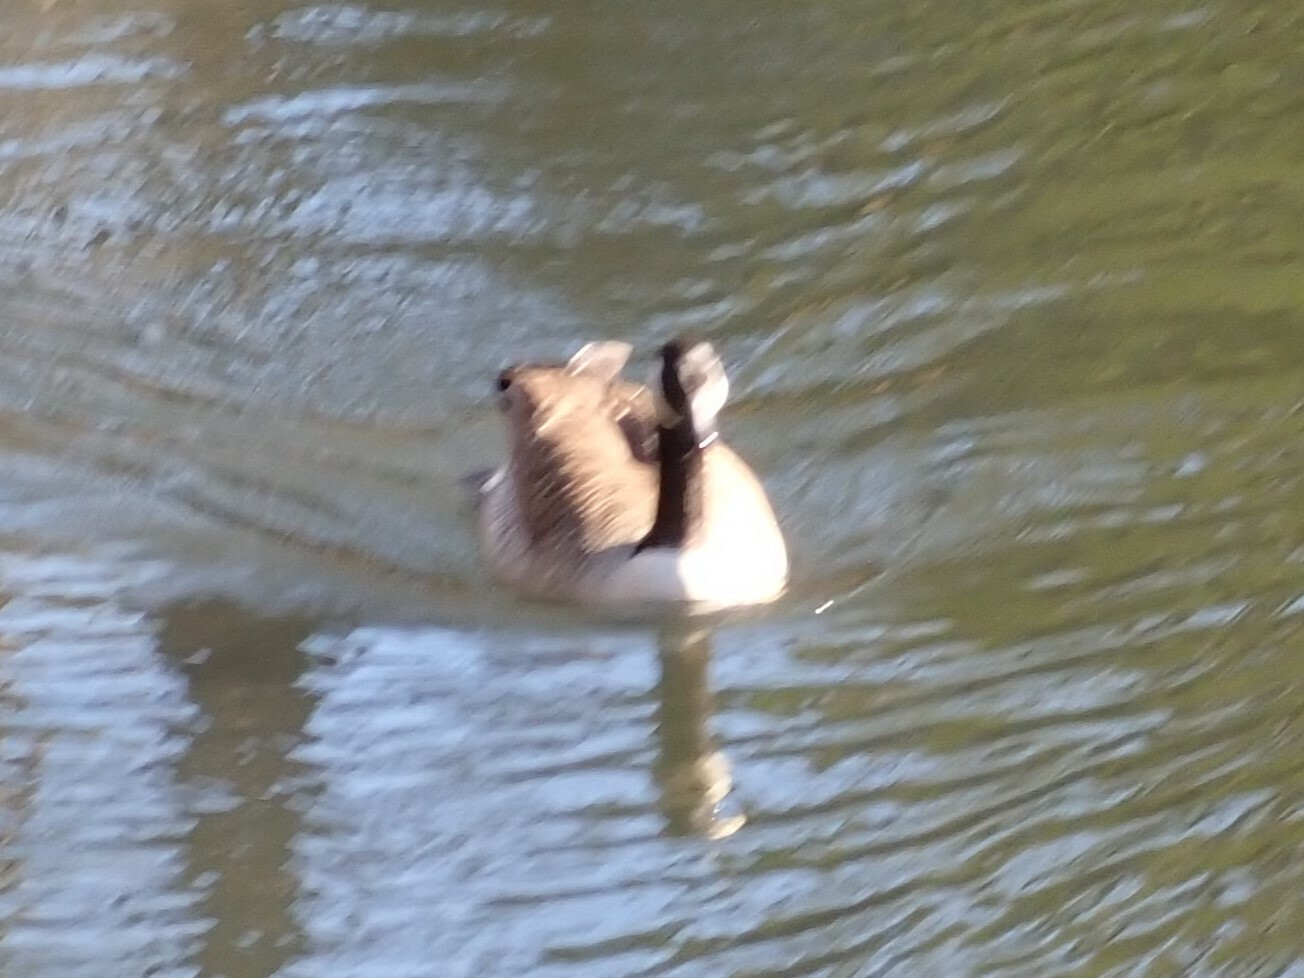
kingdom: Animalia
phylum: Chordata
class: Aves
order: Anseriformes
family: Anatidae
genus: Branta
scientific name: Branta canadensis
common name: Canada goose
